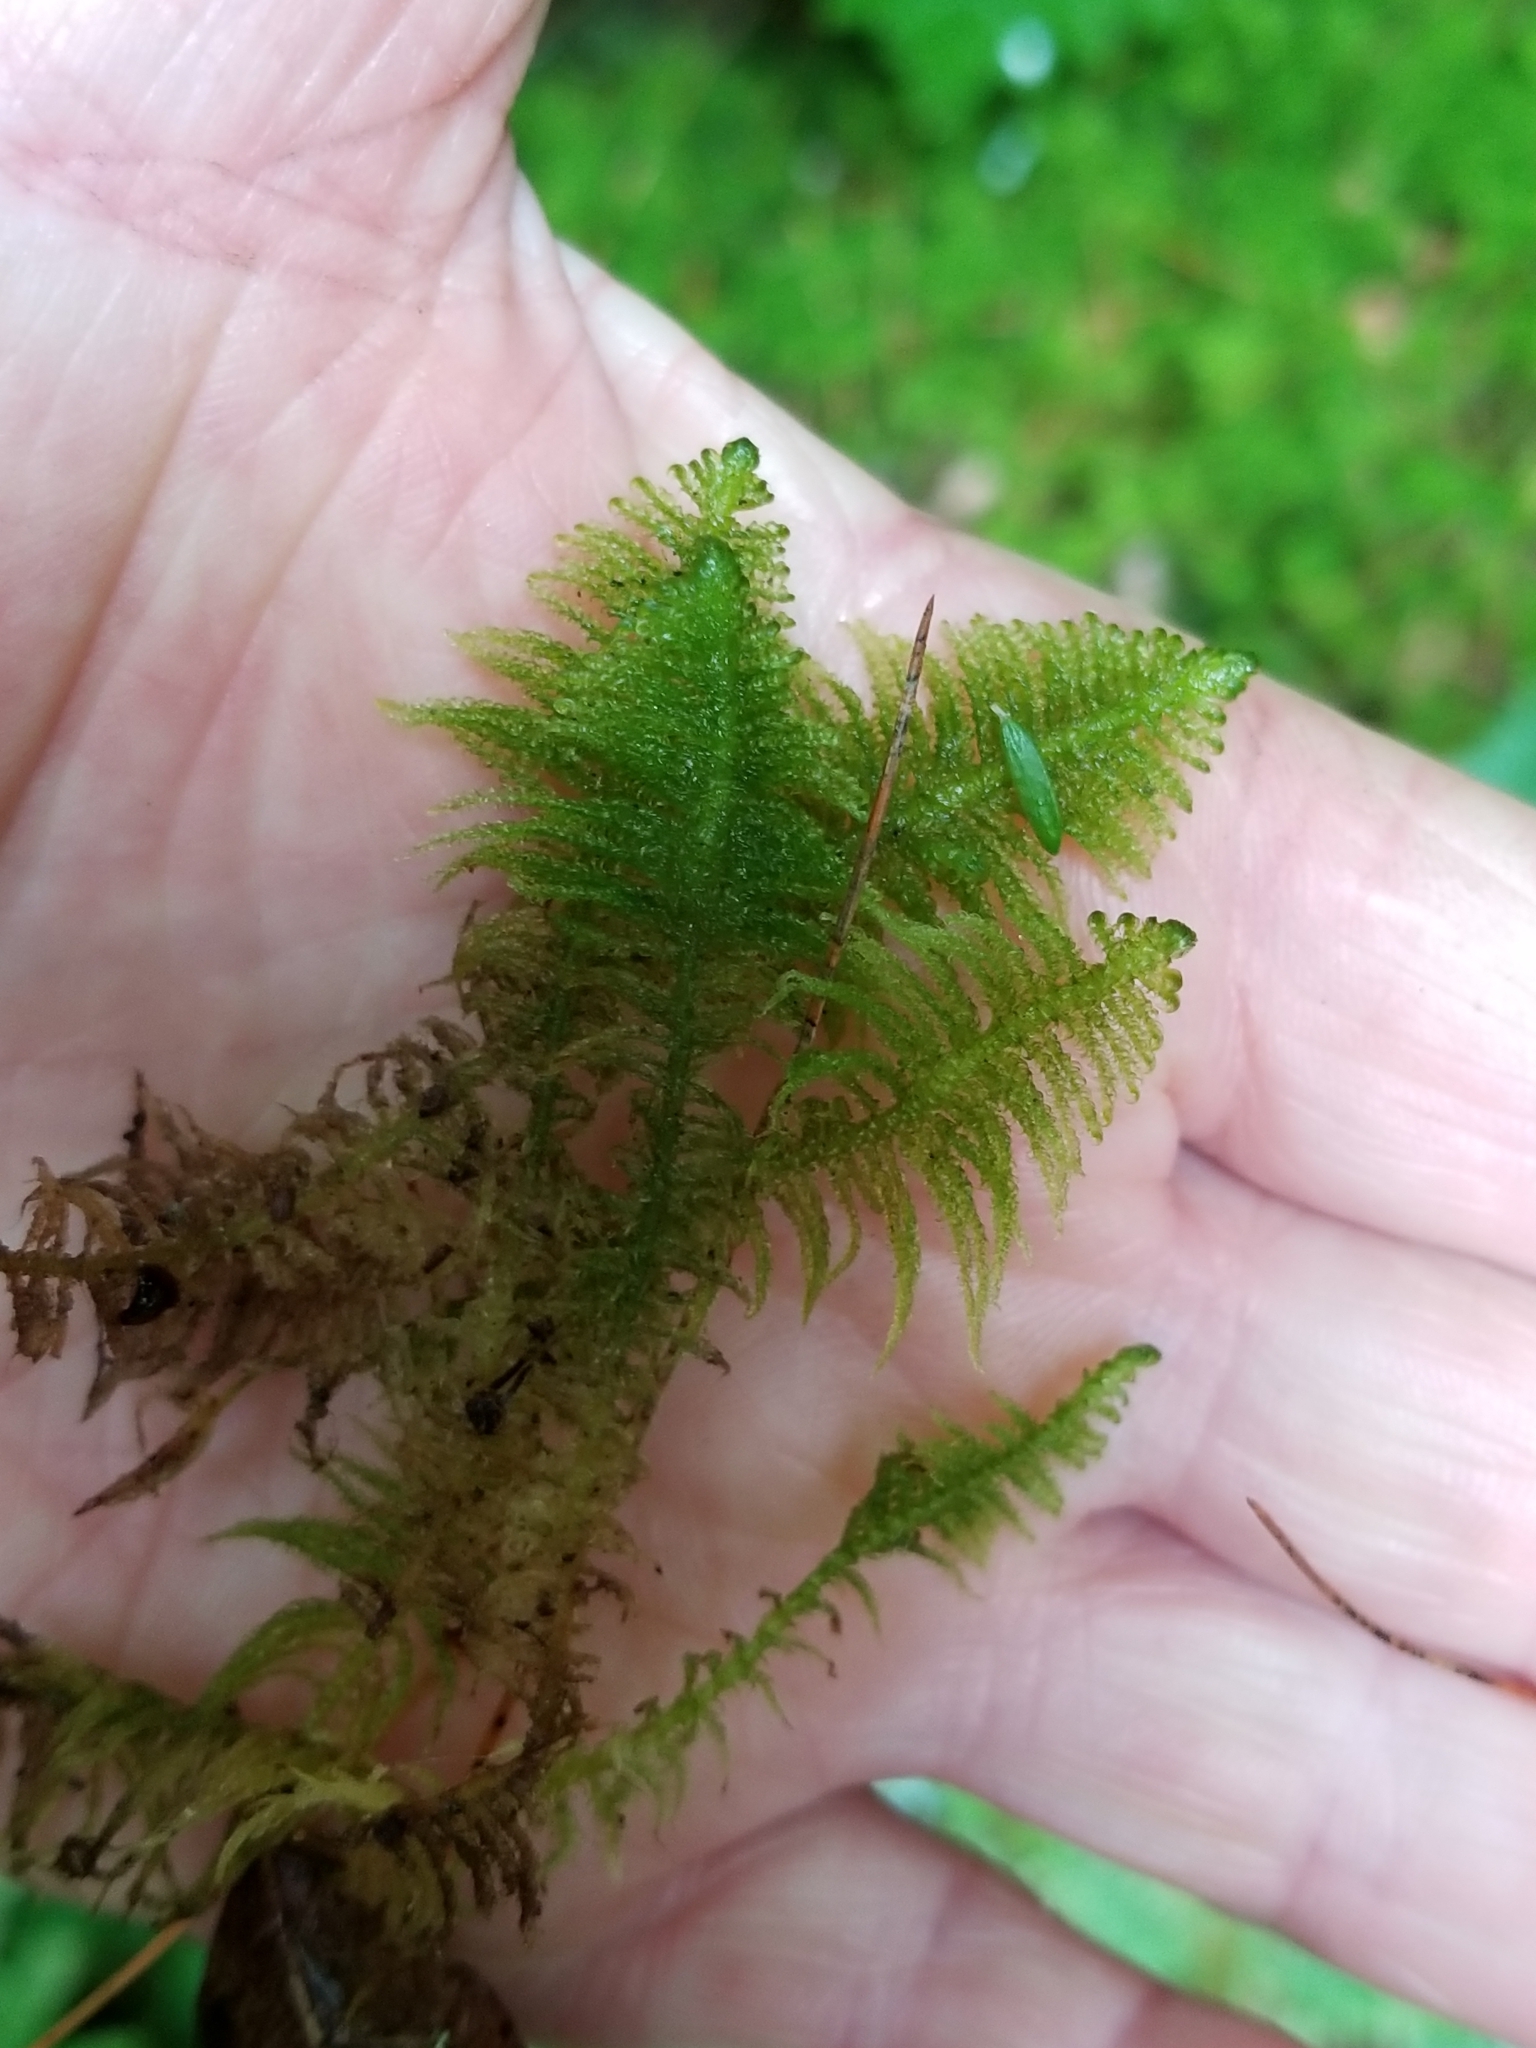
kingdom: Plantae
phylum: Bryophyta
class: Bryopsida
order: Hypnales
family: Pylaisiaceae
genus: Ptilium
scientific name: Ptilium crista-castrensis
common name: Knight's plume moss
